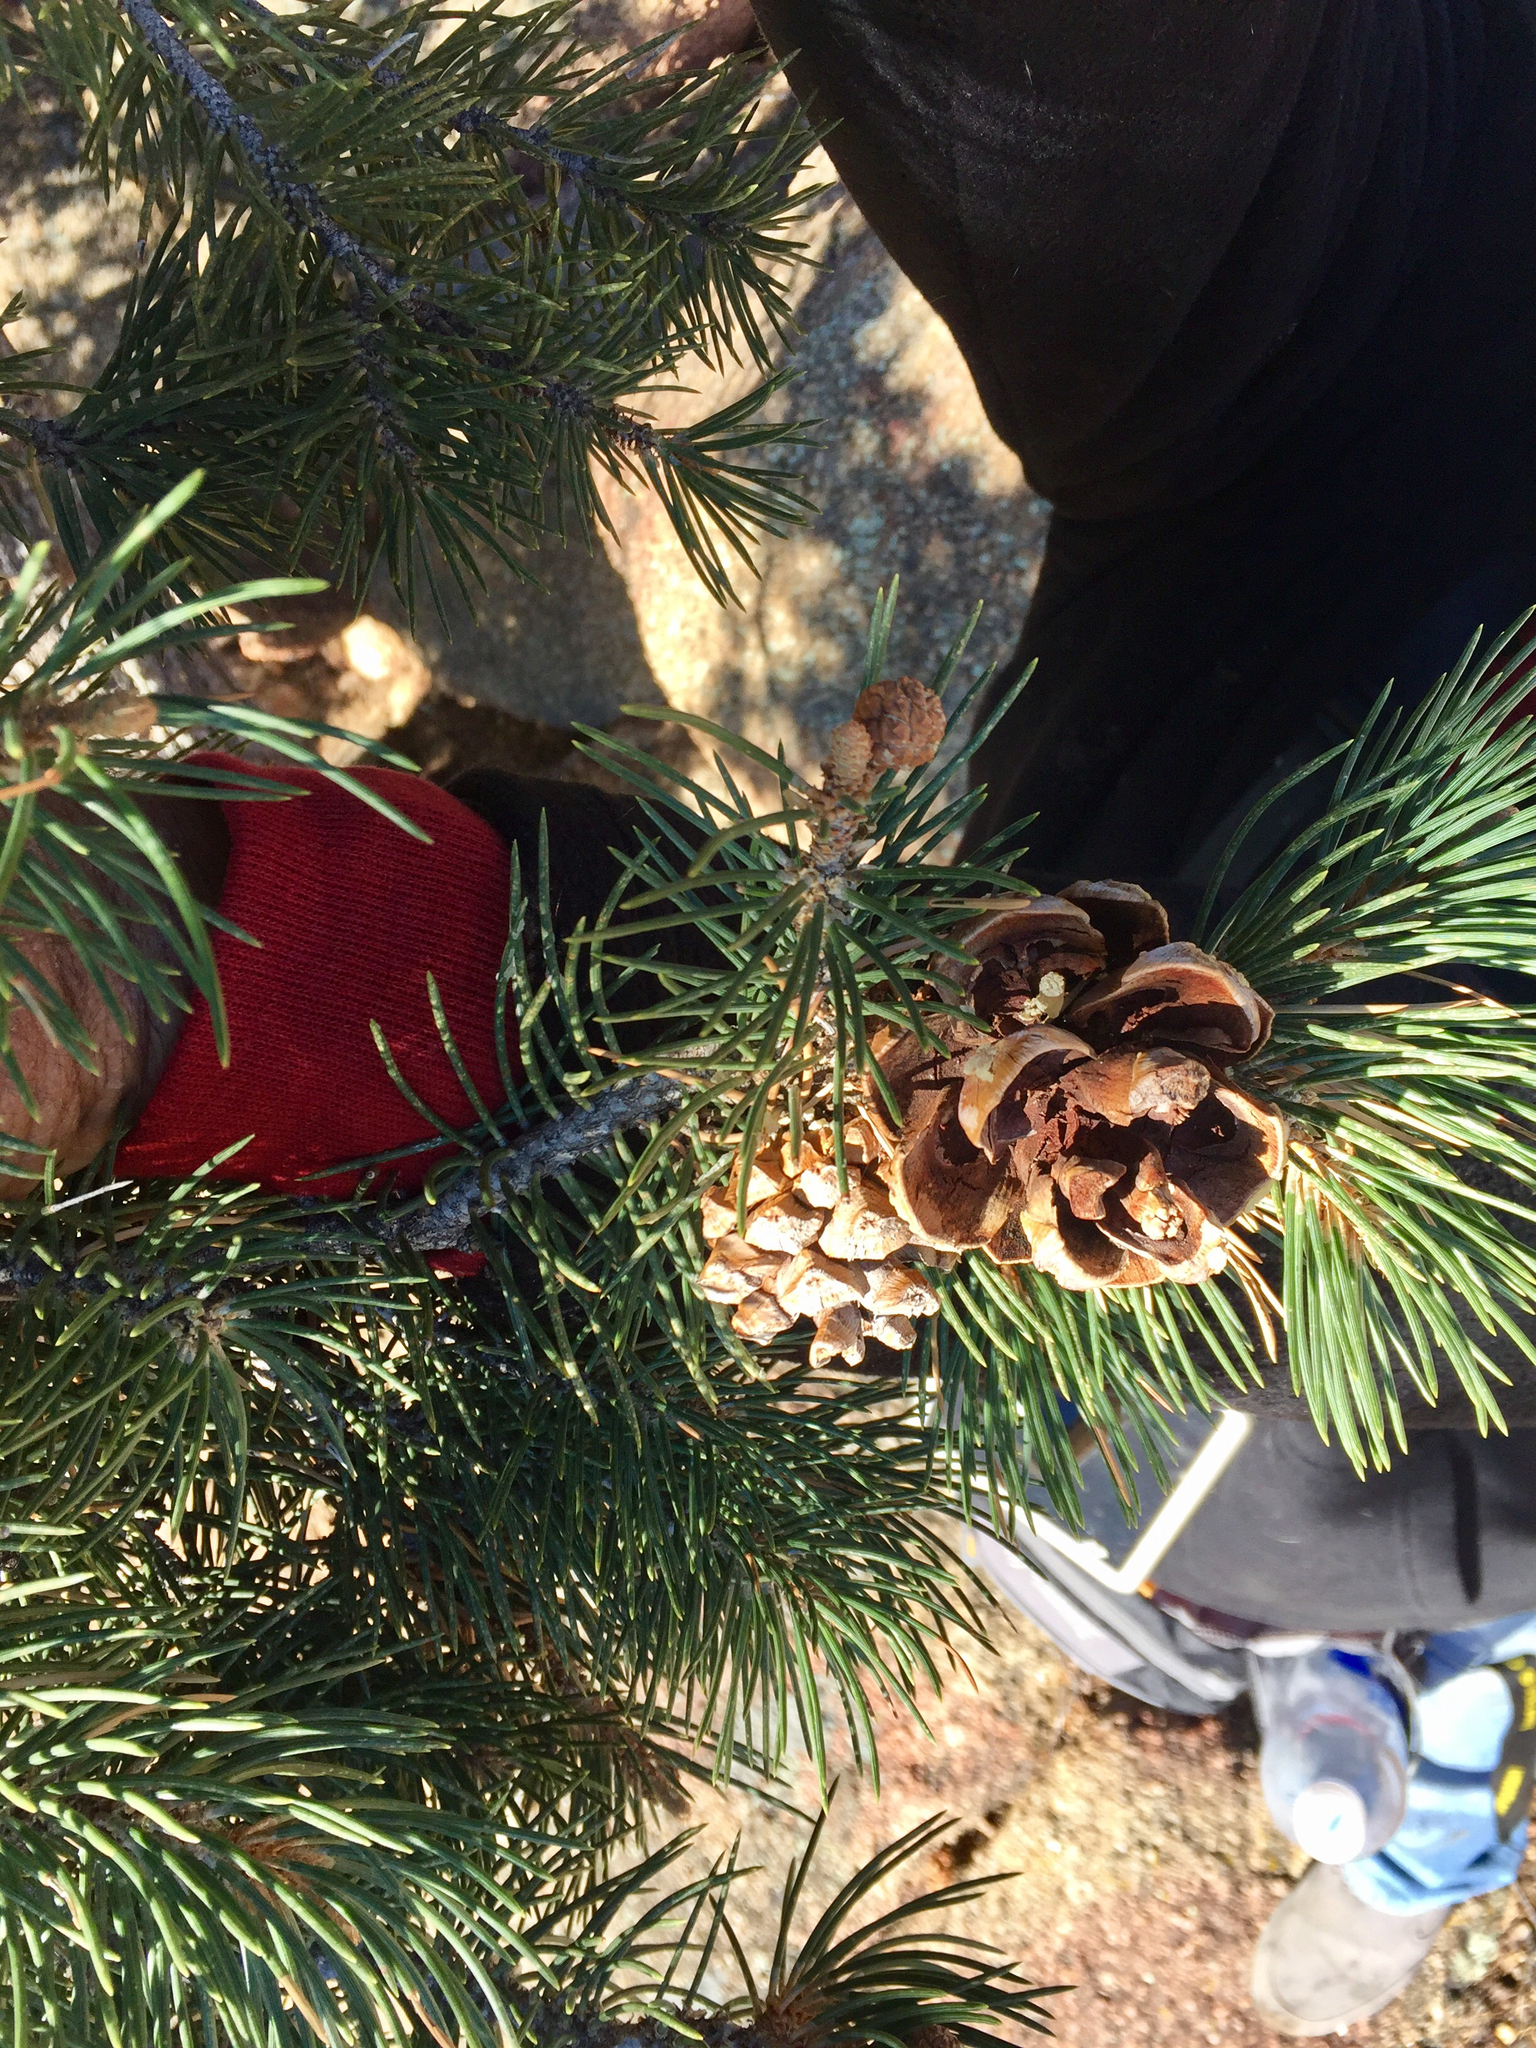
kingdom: Plantae
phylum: Tracheophyta
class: Pinopsida
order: Pinales
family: Pinaceae
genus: Pinus
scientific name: Pinus monophylla
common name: One-leaved nut pine
